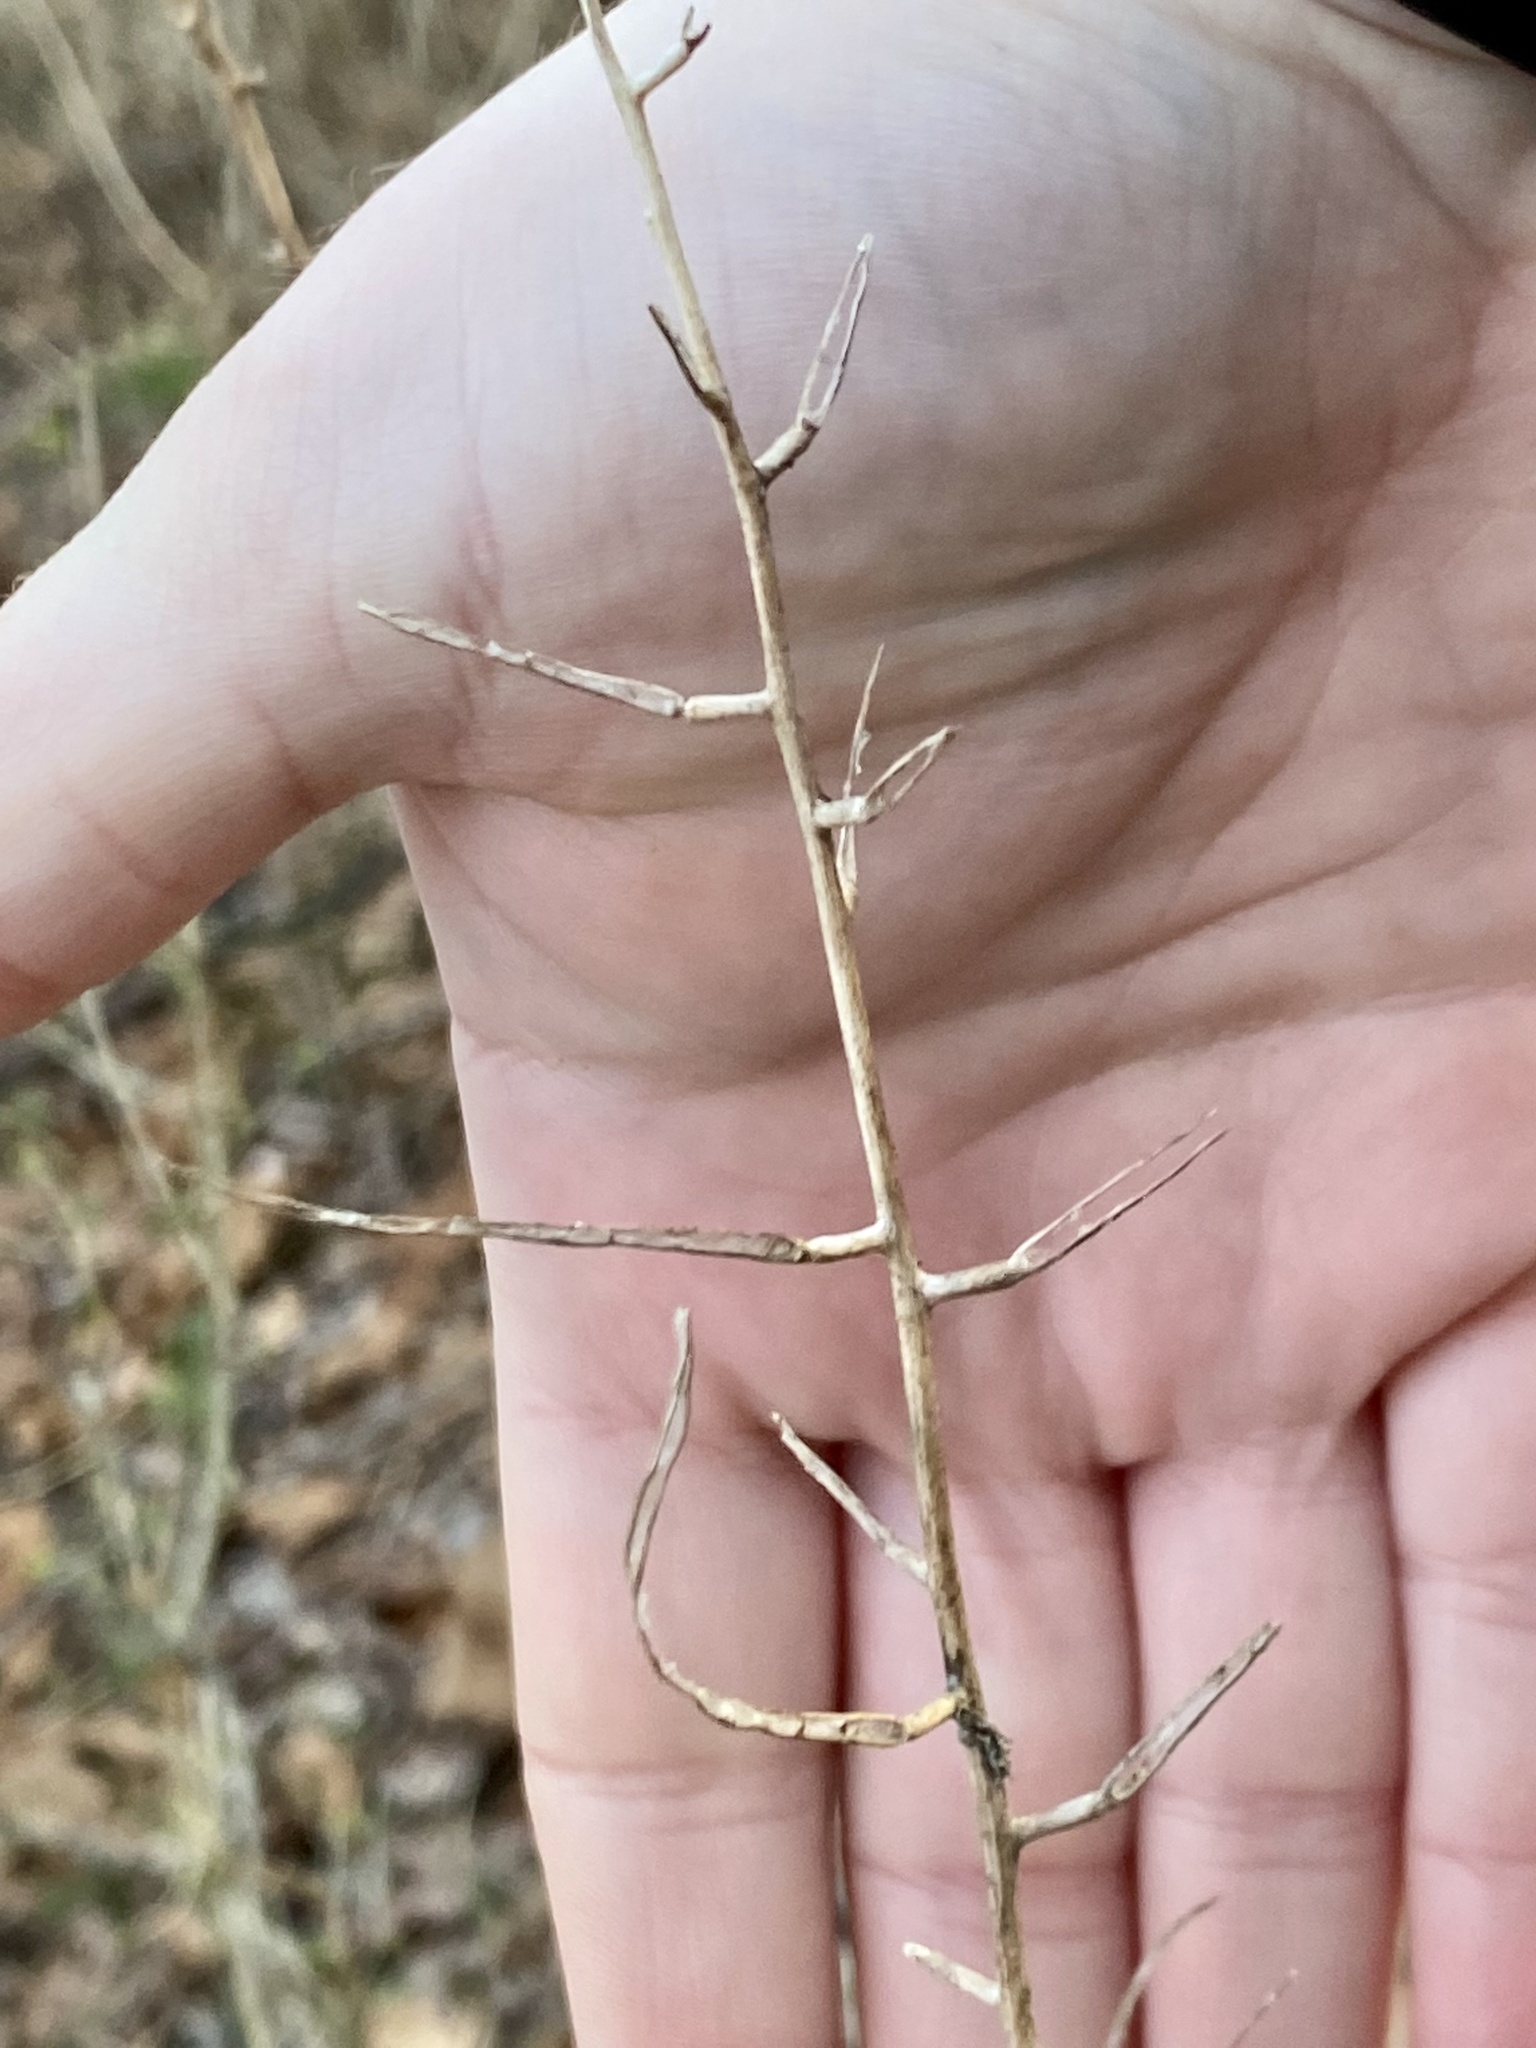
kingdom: Plantae
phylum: Tracheophyta
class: Magnoliopsida
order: Brassicales
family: Brassicaceae
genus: Alliaria
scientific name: Alliaria petiolata
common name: Garlic mustard
